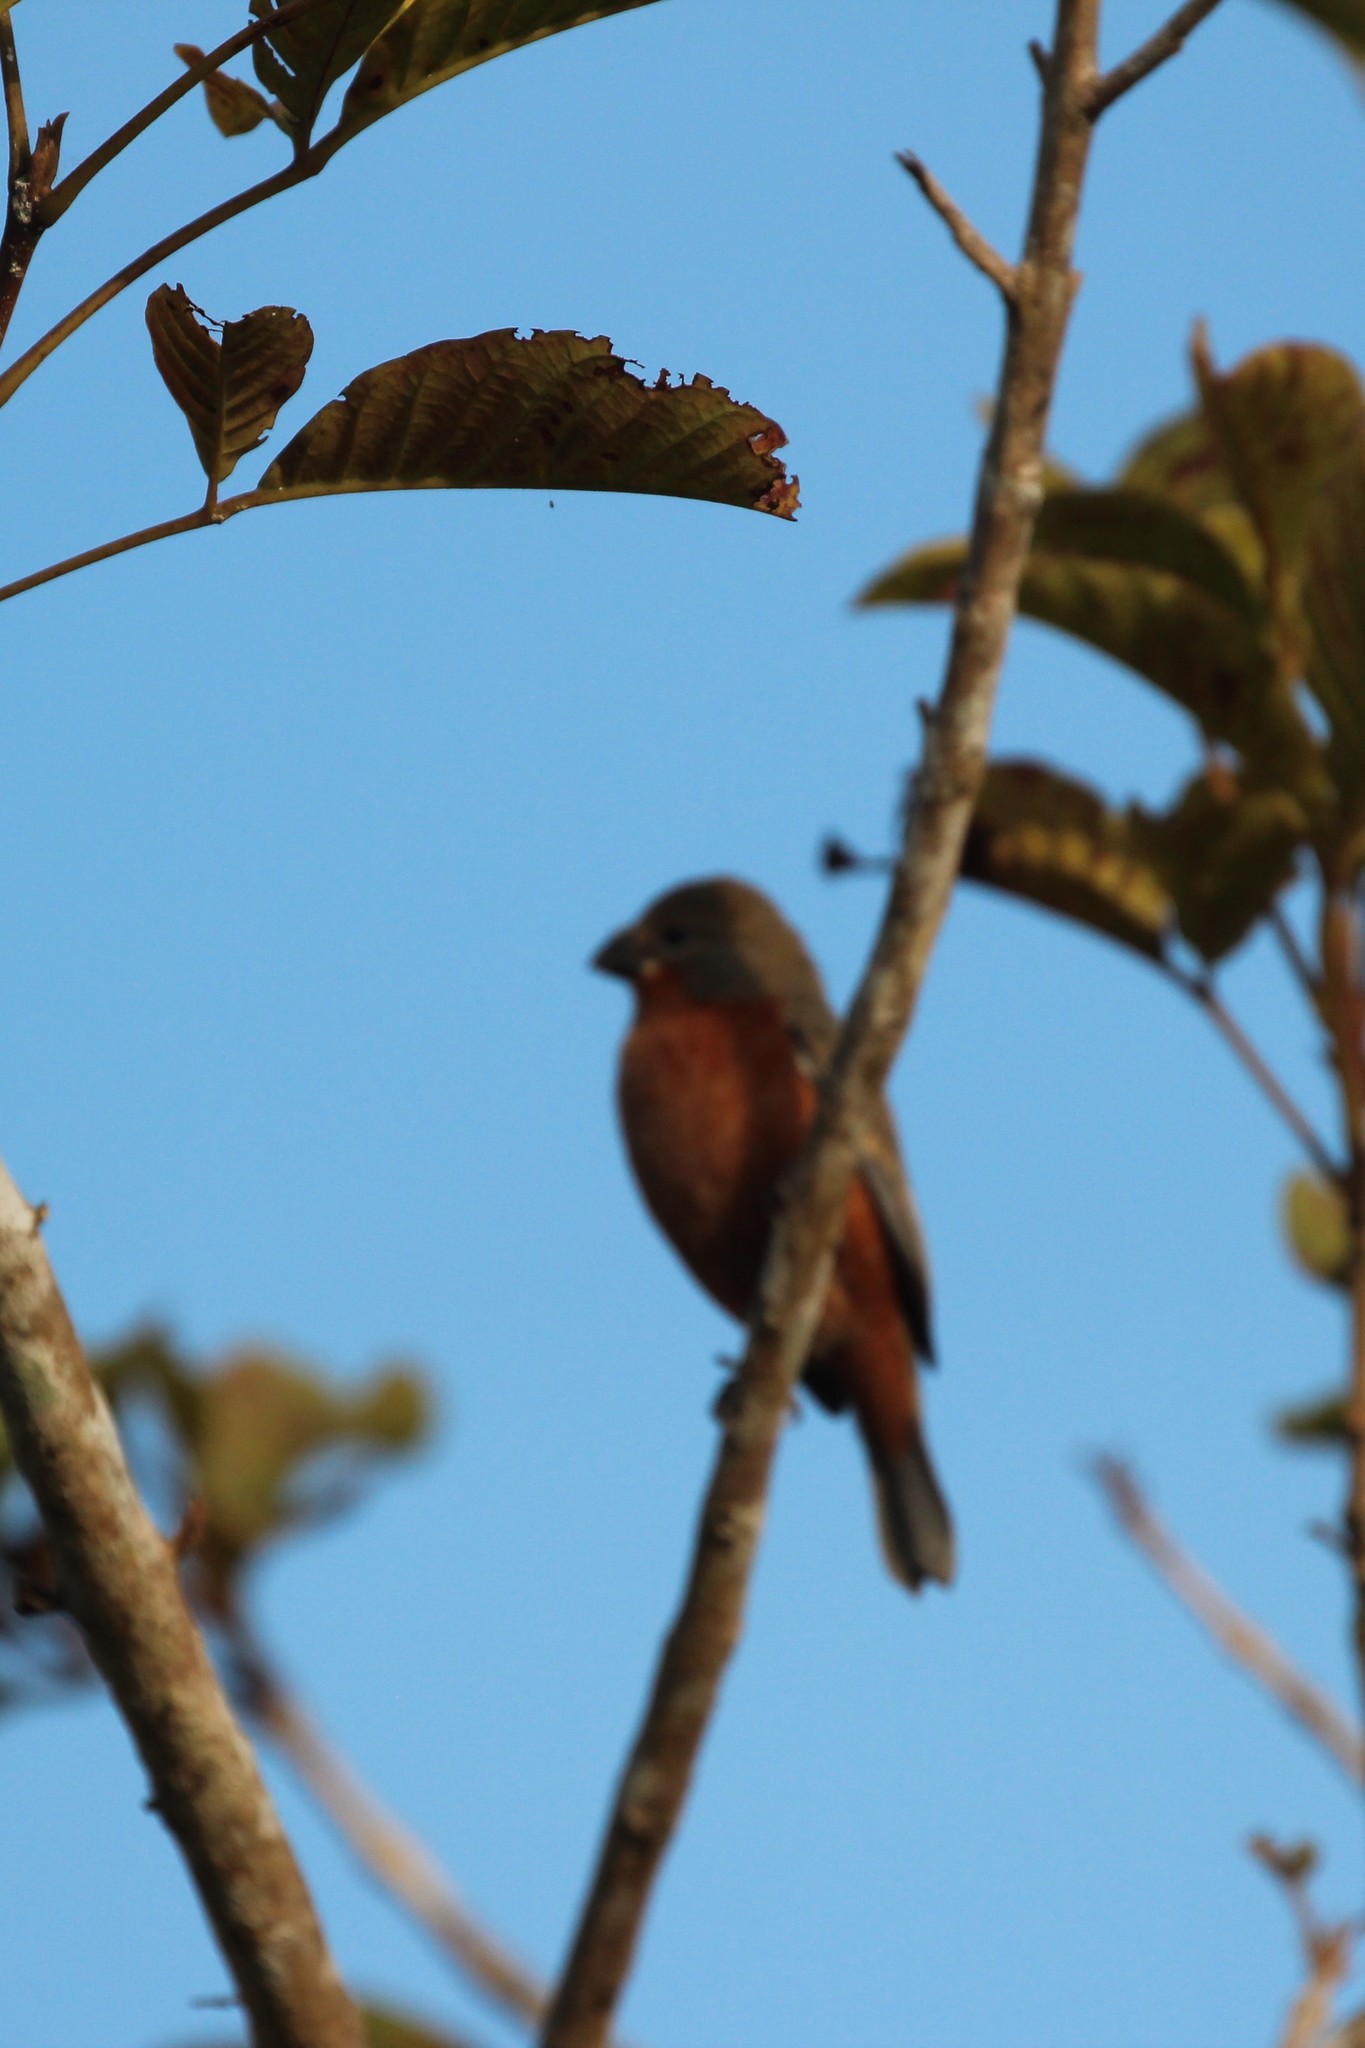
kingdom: Animalia
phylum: Chordata
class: Aves
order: Passeriformes
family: Thraupidae
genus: Sporophila
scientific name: Sporophila minuta
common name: Ruddy-breasted seedeater
